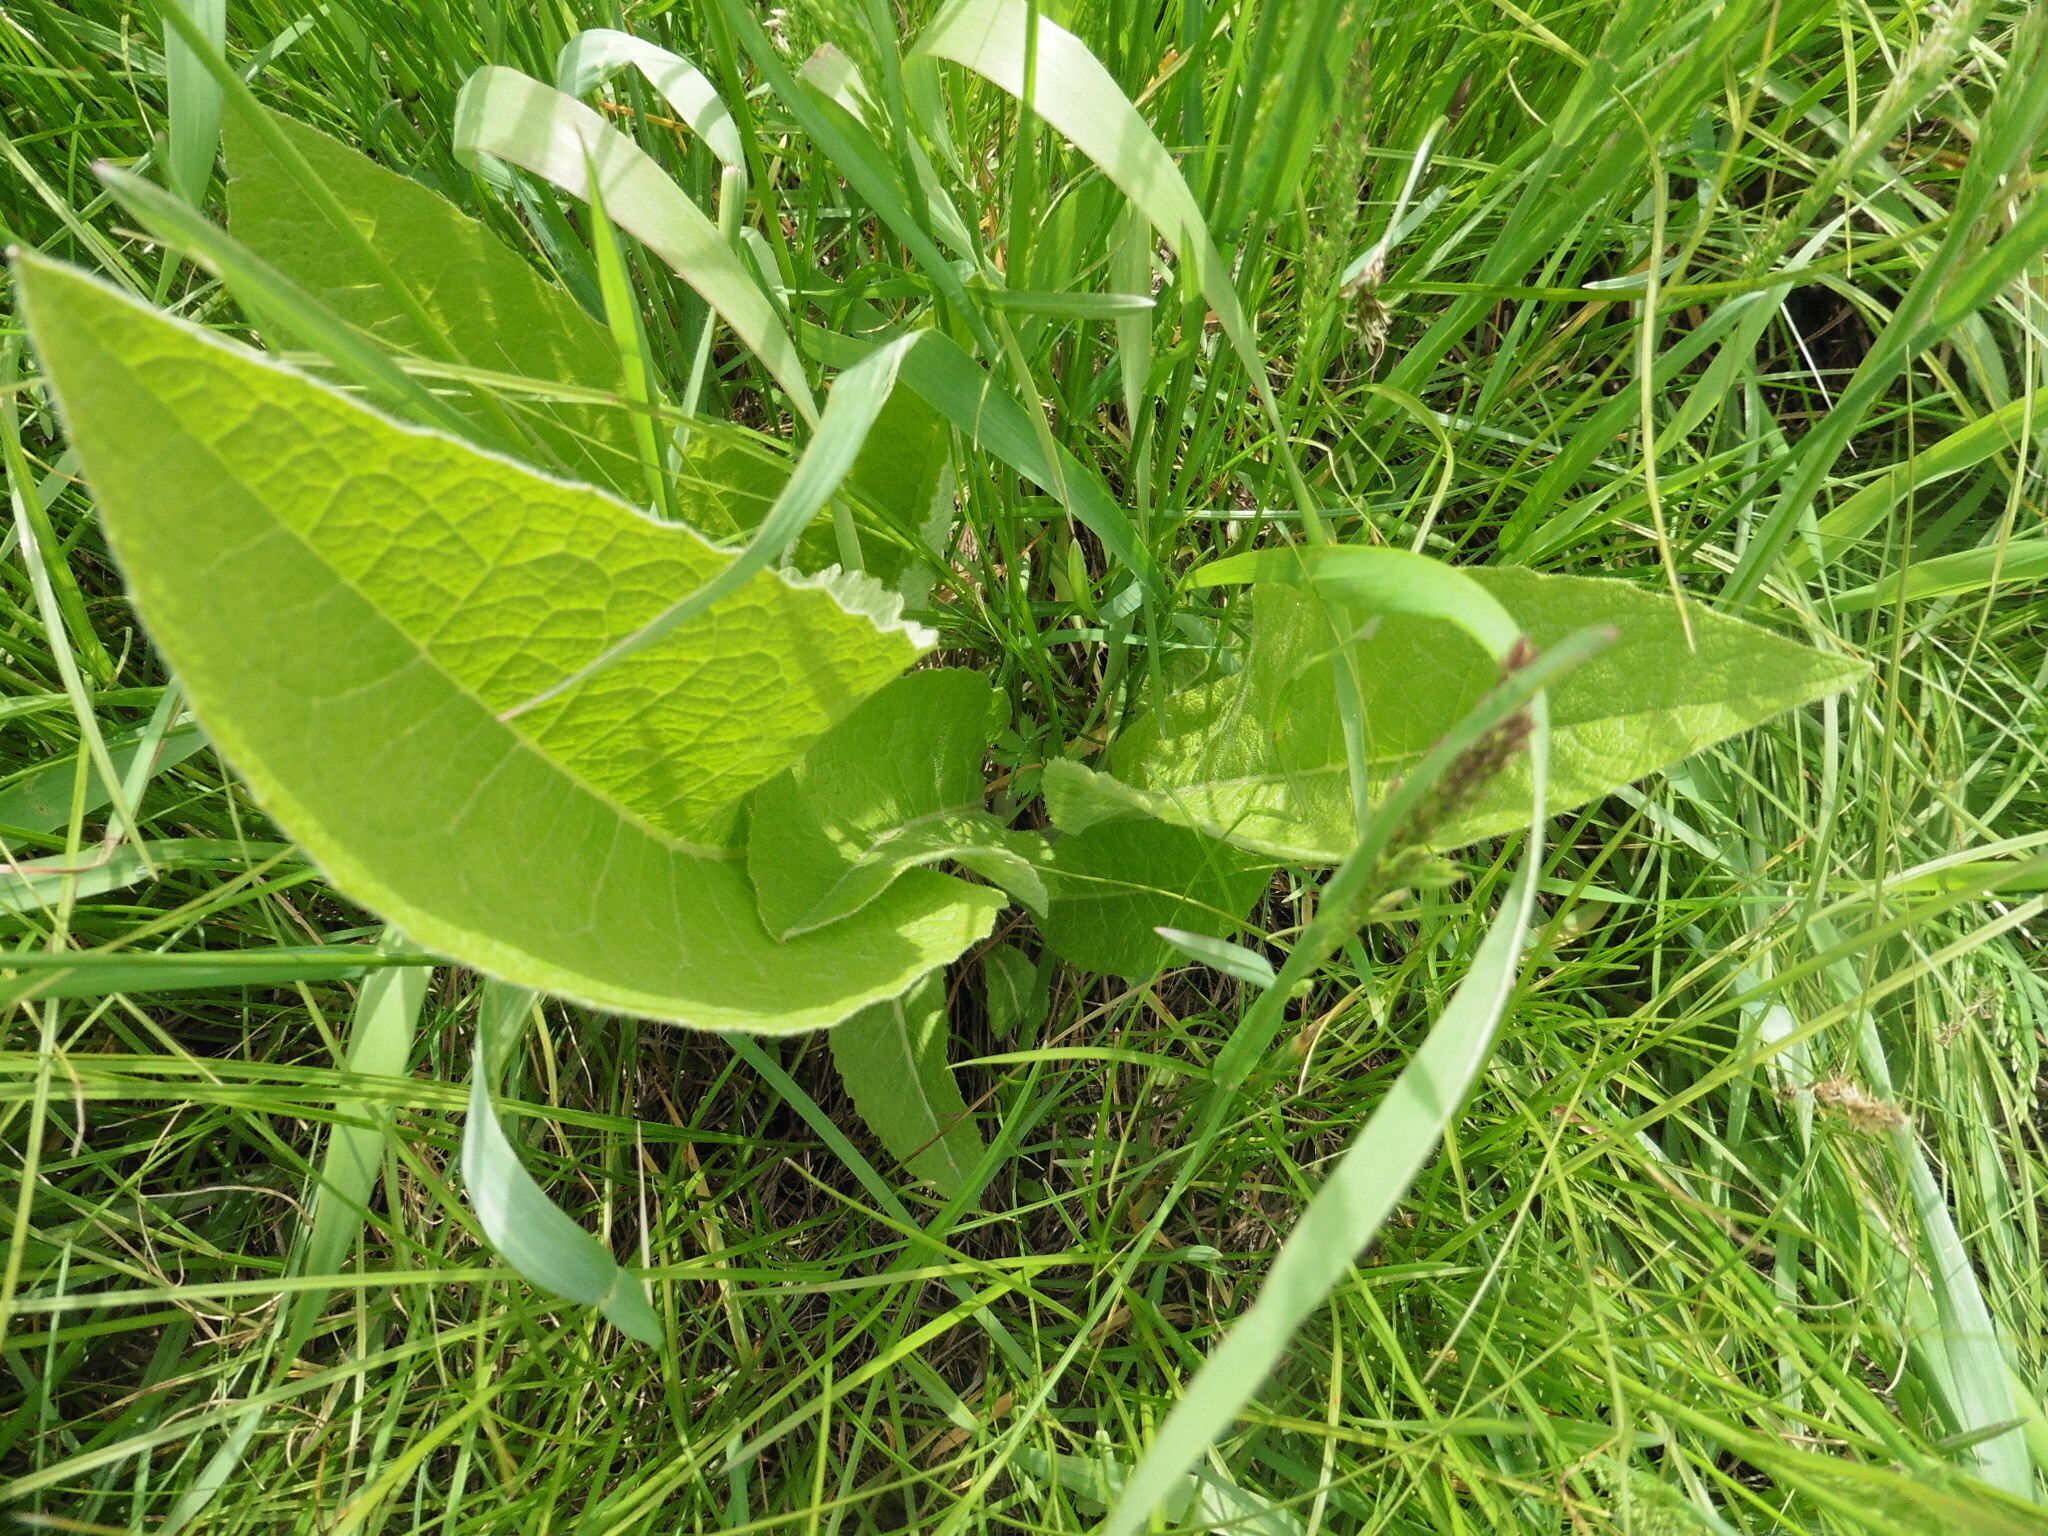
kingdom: Plantae
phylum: Tracheophyta
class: Magnoliopsida
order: Asterales
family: Asteraceae
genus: Inula
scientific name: Inula helenium
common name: Elecampane
